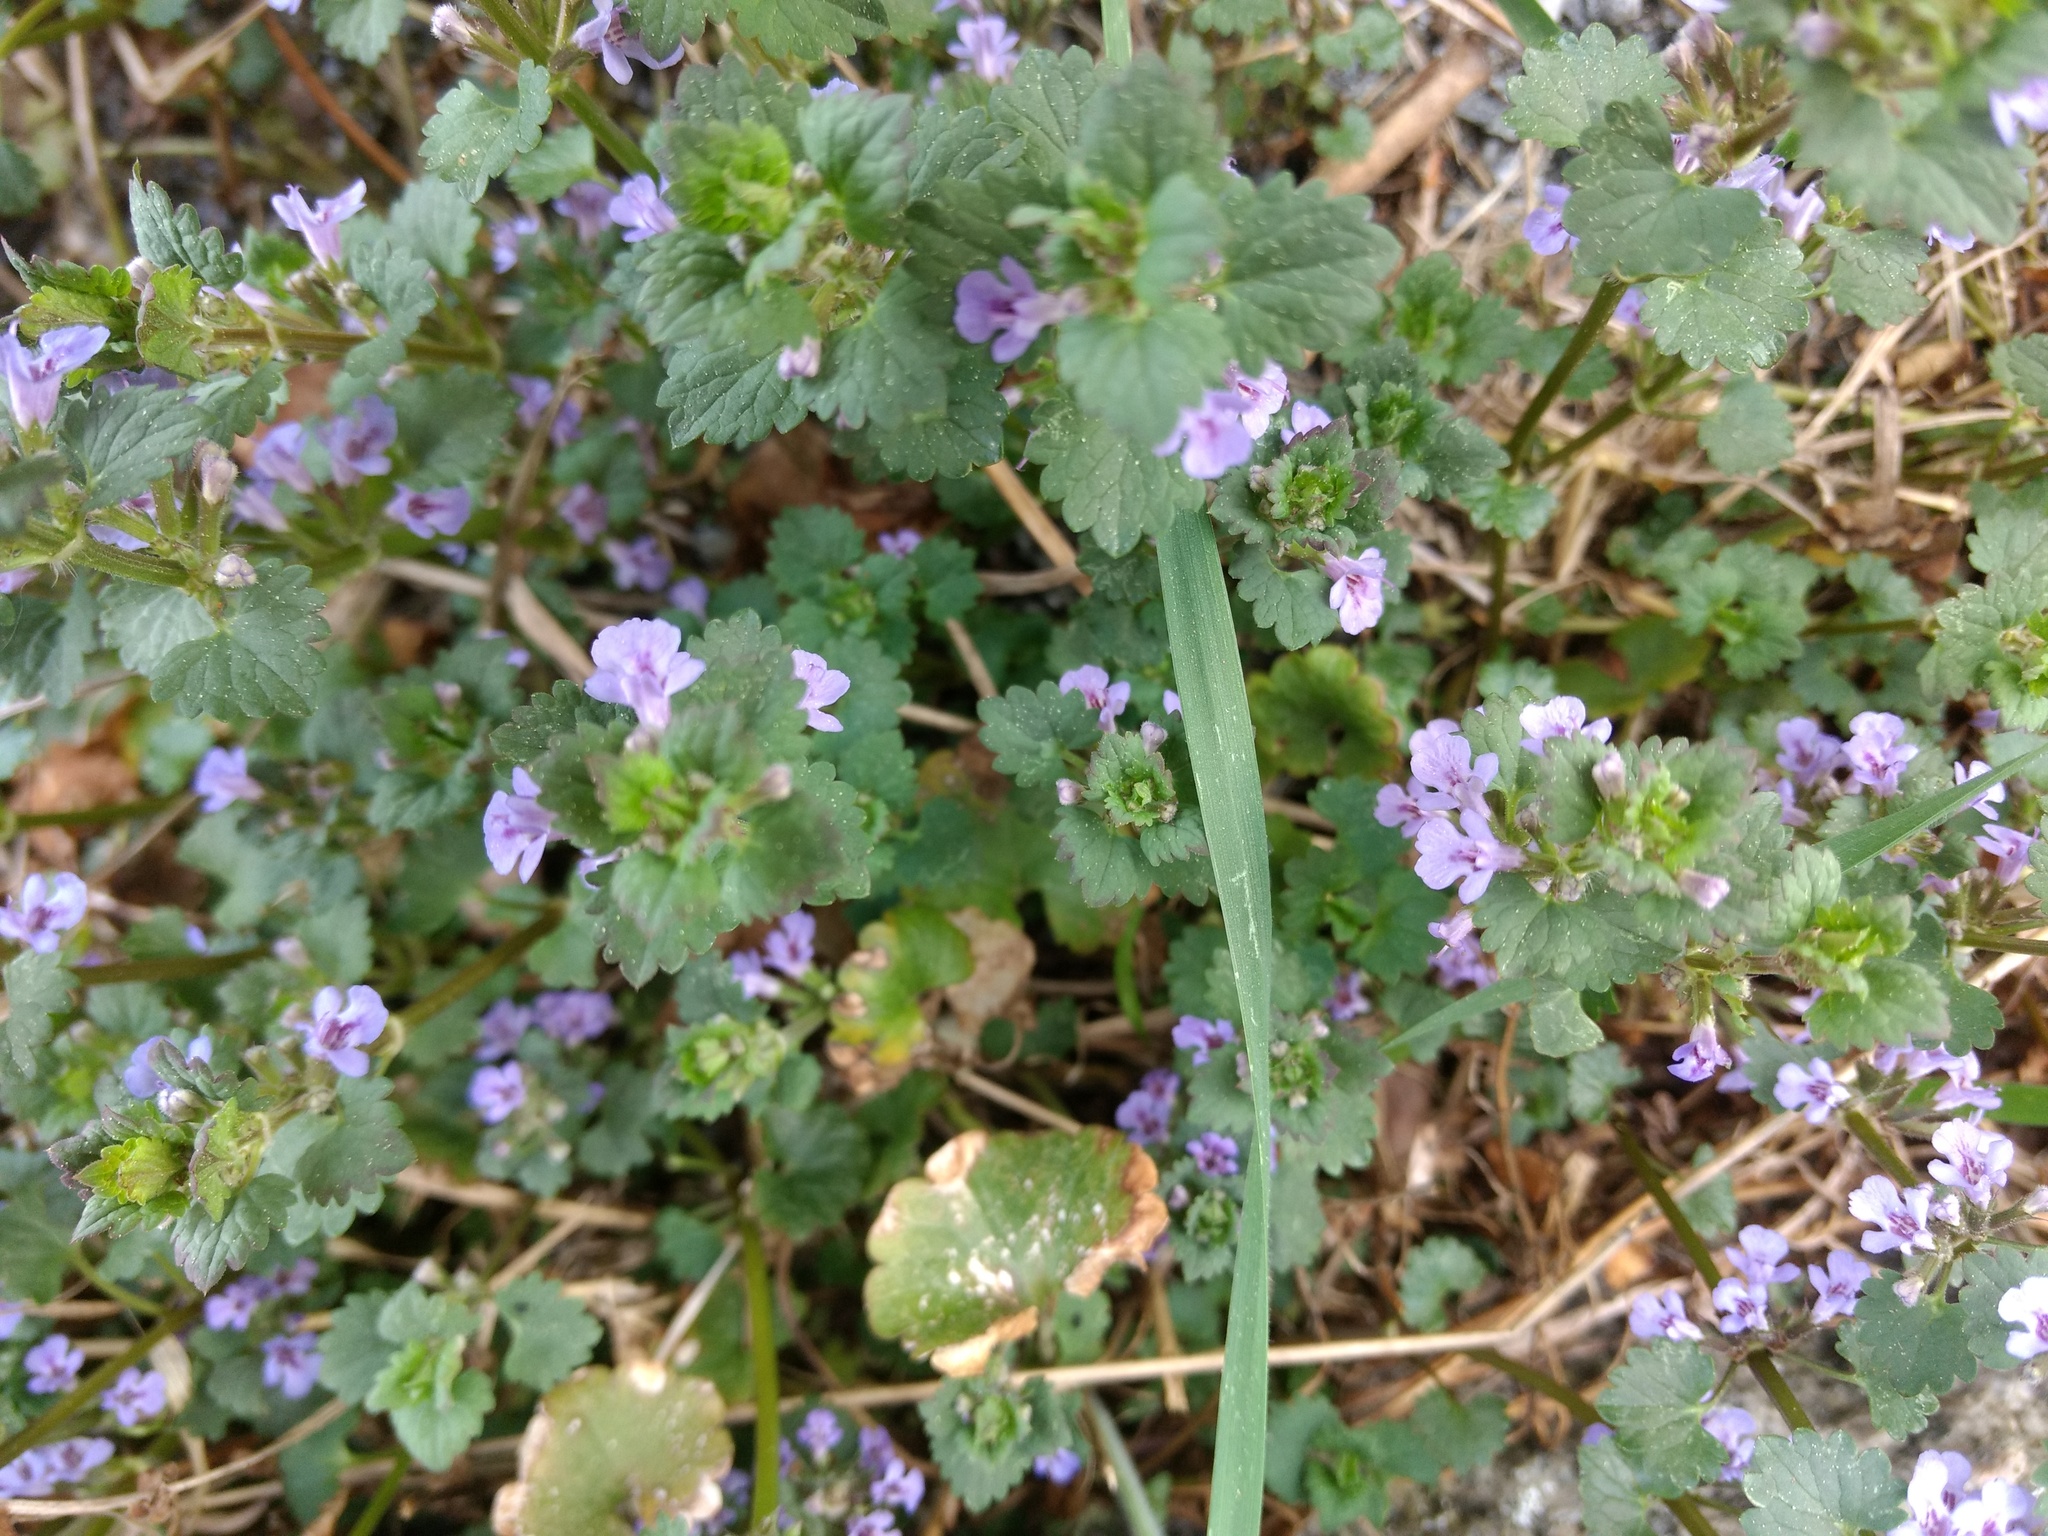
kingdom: Plantae
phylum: Tracheophyta
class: Magnoliopsida
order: Lamiales
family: Lamiaceae
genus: Glechoma
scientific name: Glechoma hederacea
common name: Ground ivy
